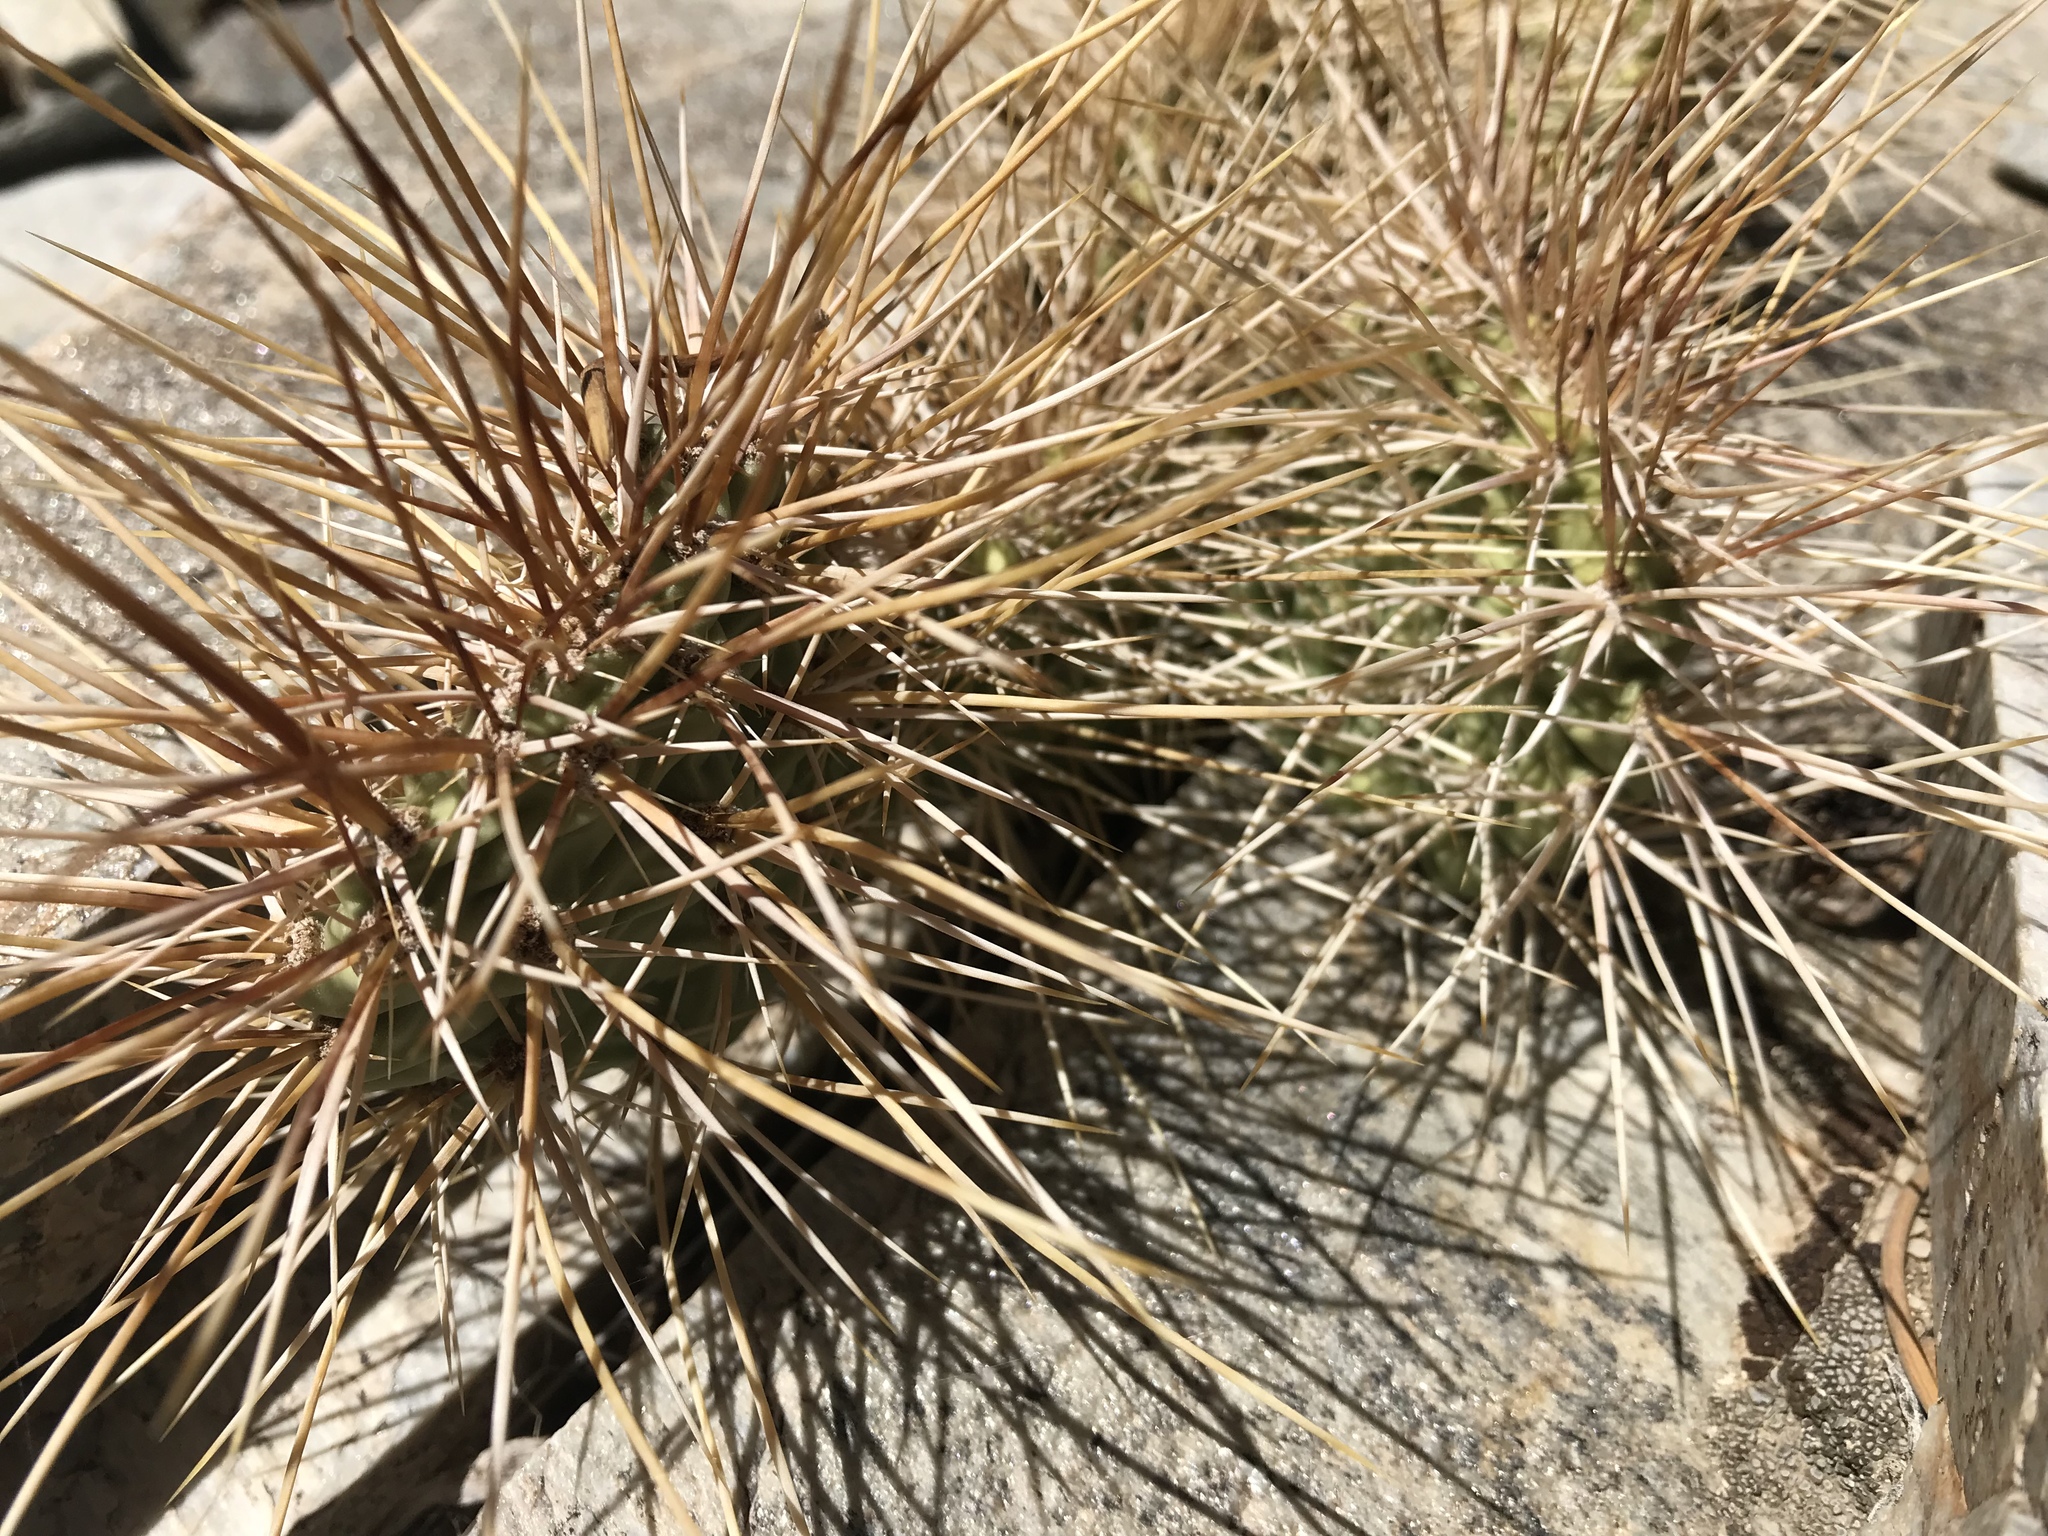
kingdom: Plantae
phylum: Tracheophyta
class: Magnoliopsida
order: Caryophyllales
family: Cactaceae
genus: Opuntia
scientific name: Opuntia polyacantha
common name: Plains prickly-pear
